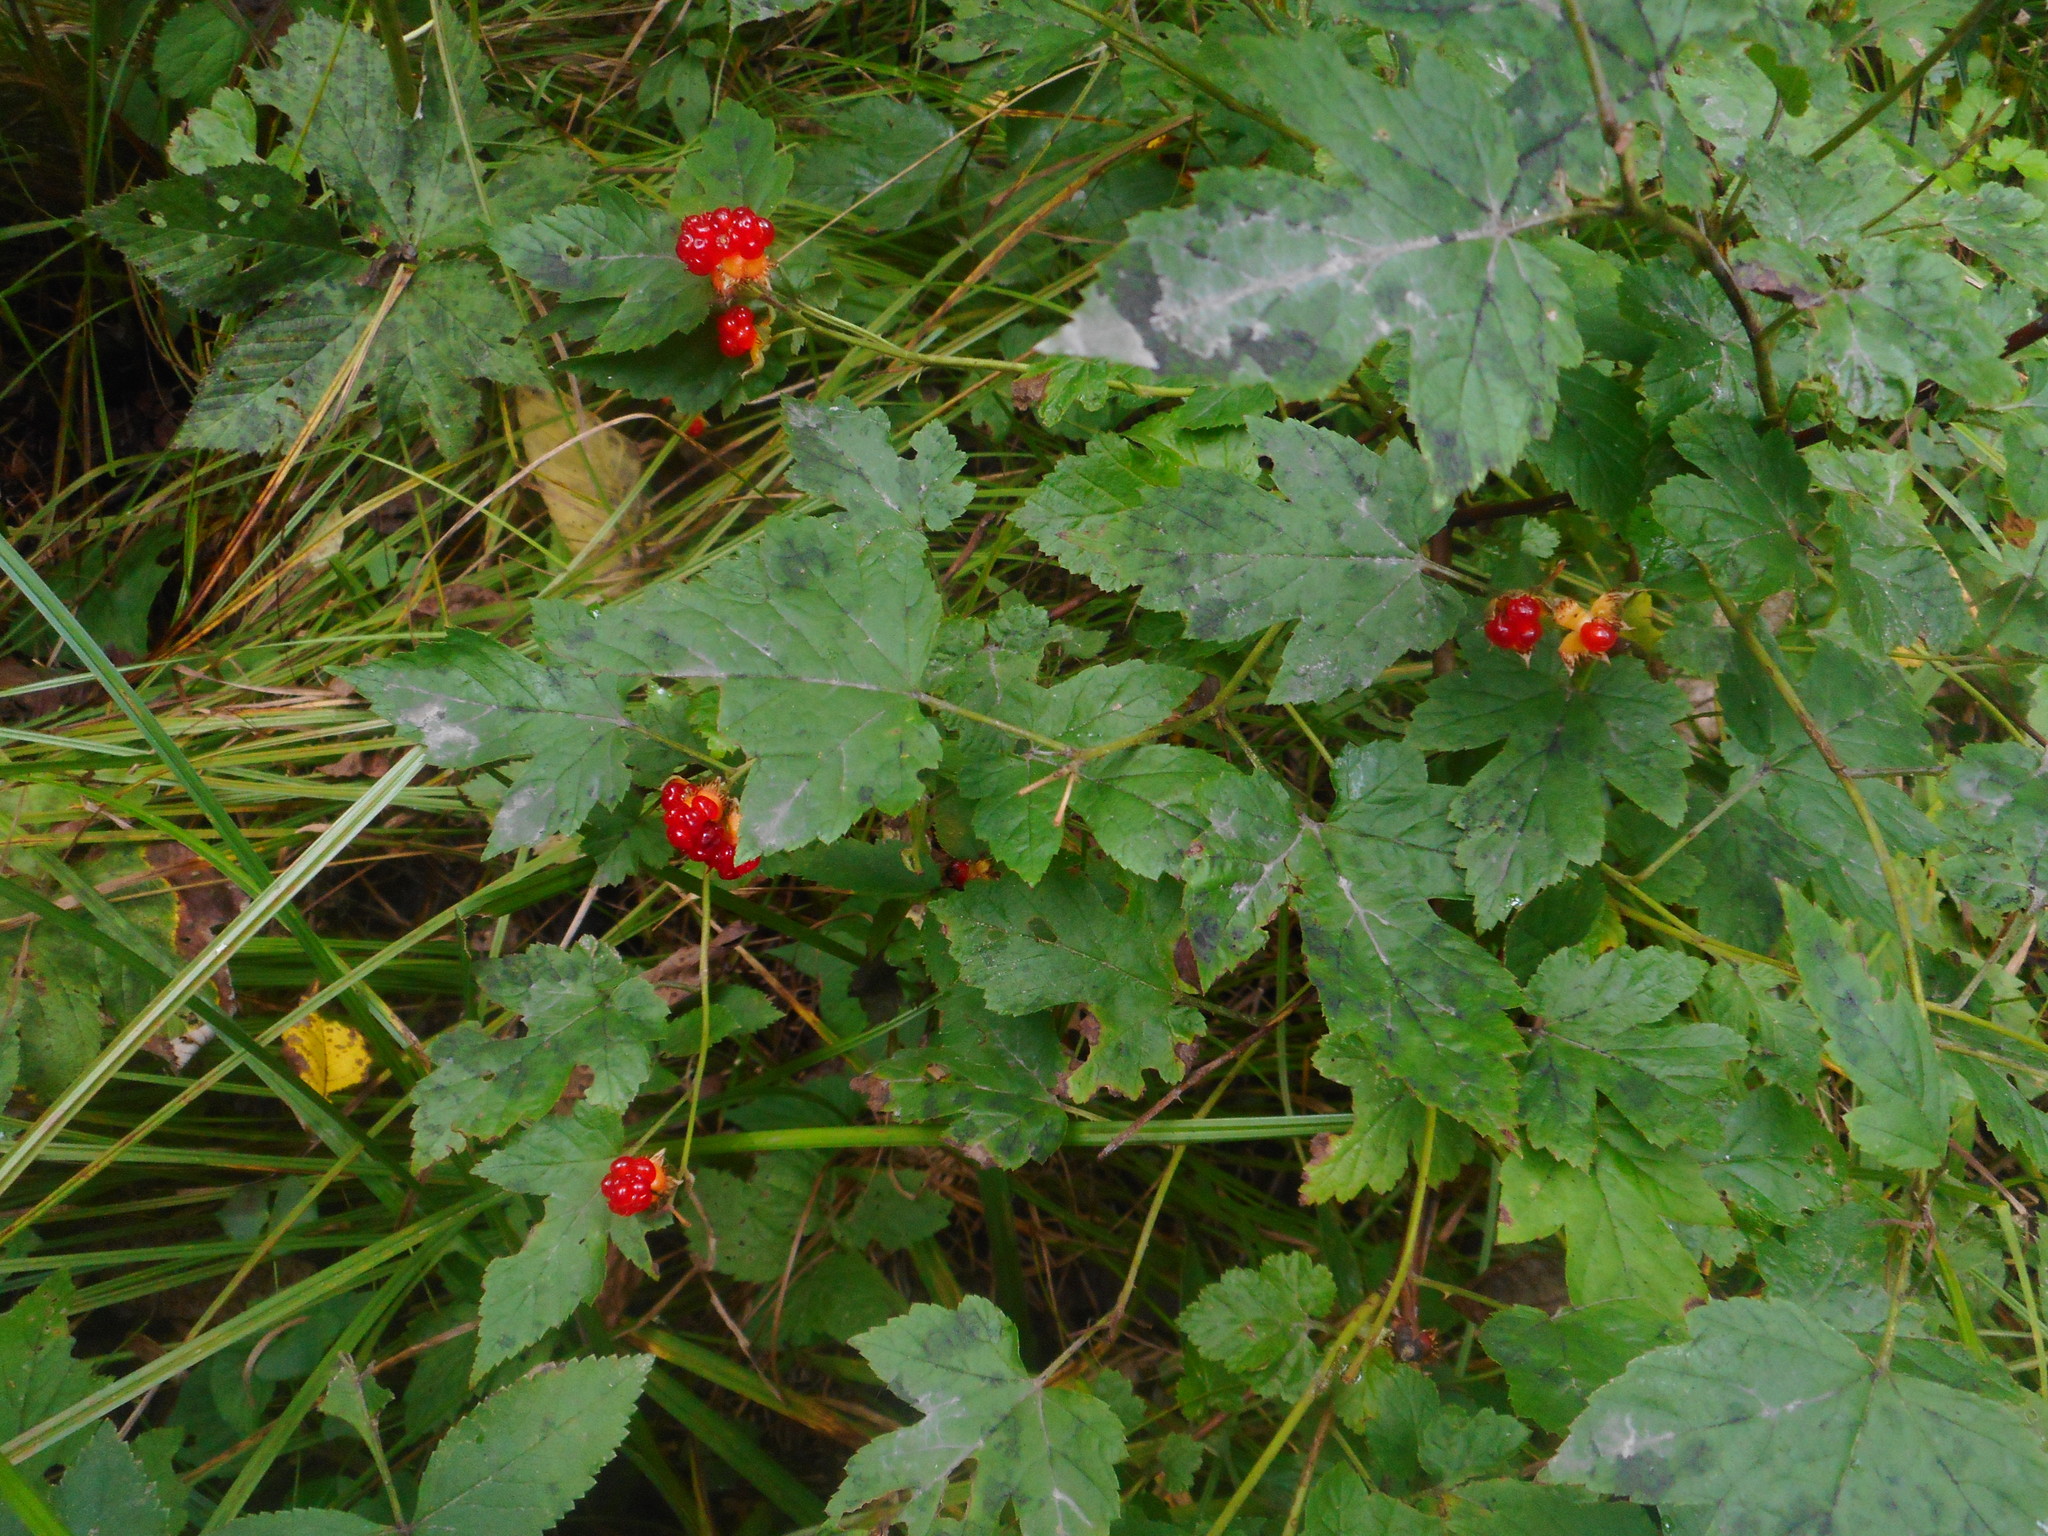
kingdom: Plantae
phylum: Tracheophyta
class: Magnoliopsida
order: Rosales
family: Rosaceae
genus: Rubus
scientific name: Rubus crataegifolius
